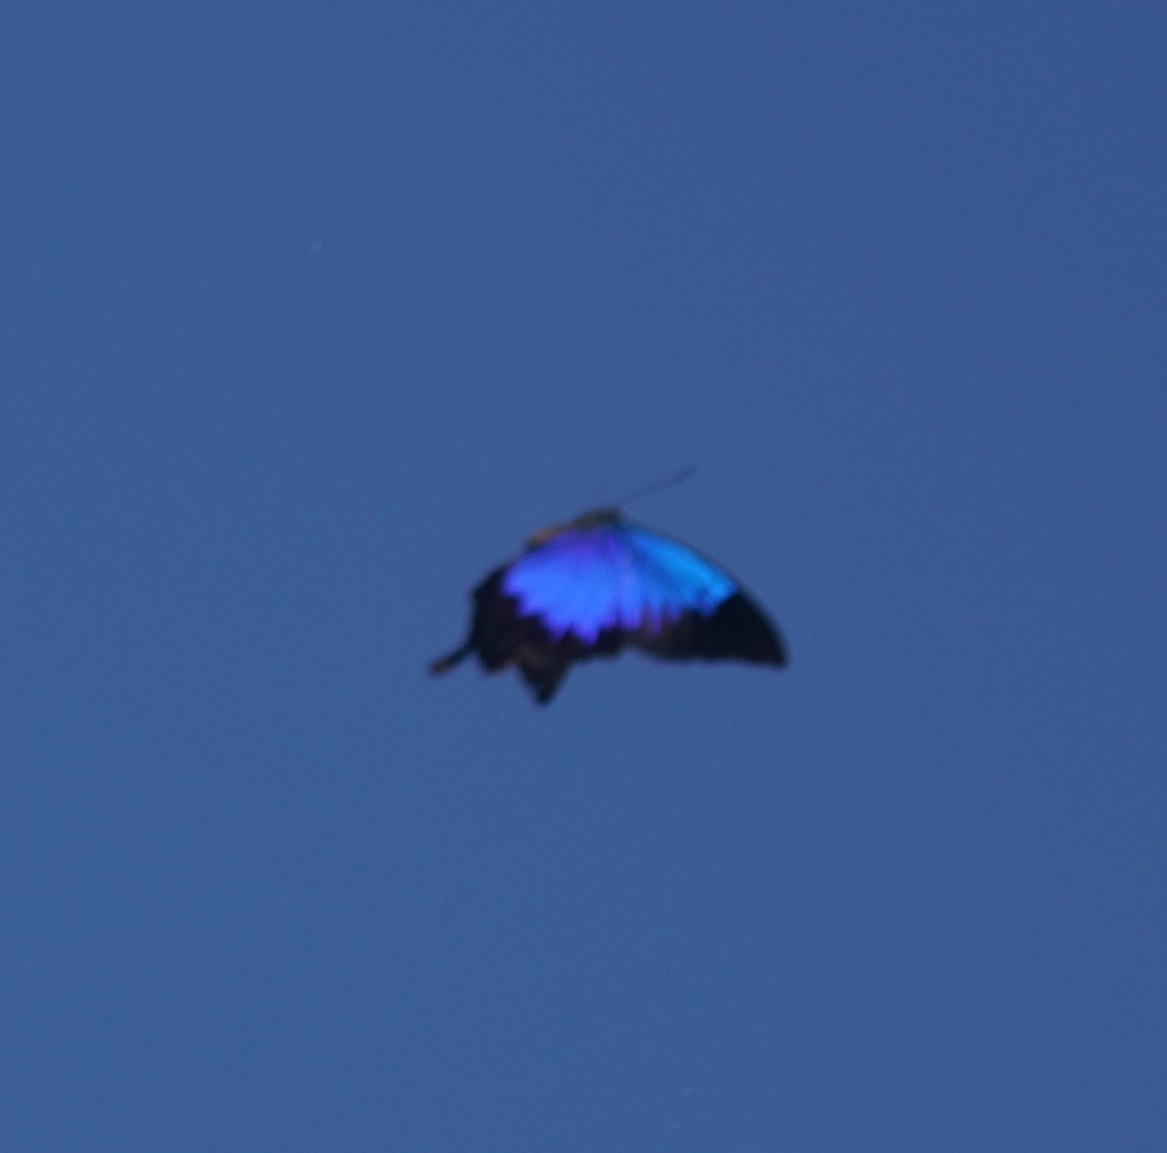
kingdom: Animalia
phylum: Arthropoda
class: Insecta
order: Lepidoptera
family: Papilionidae
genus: Papilio
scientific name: Papilio ulysses
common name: Blue emperor
